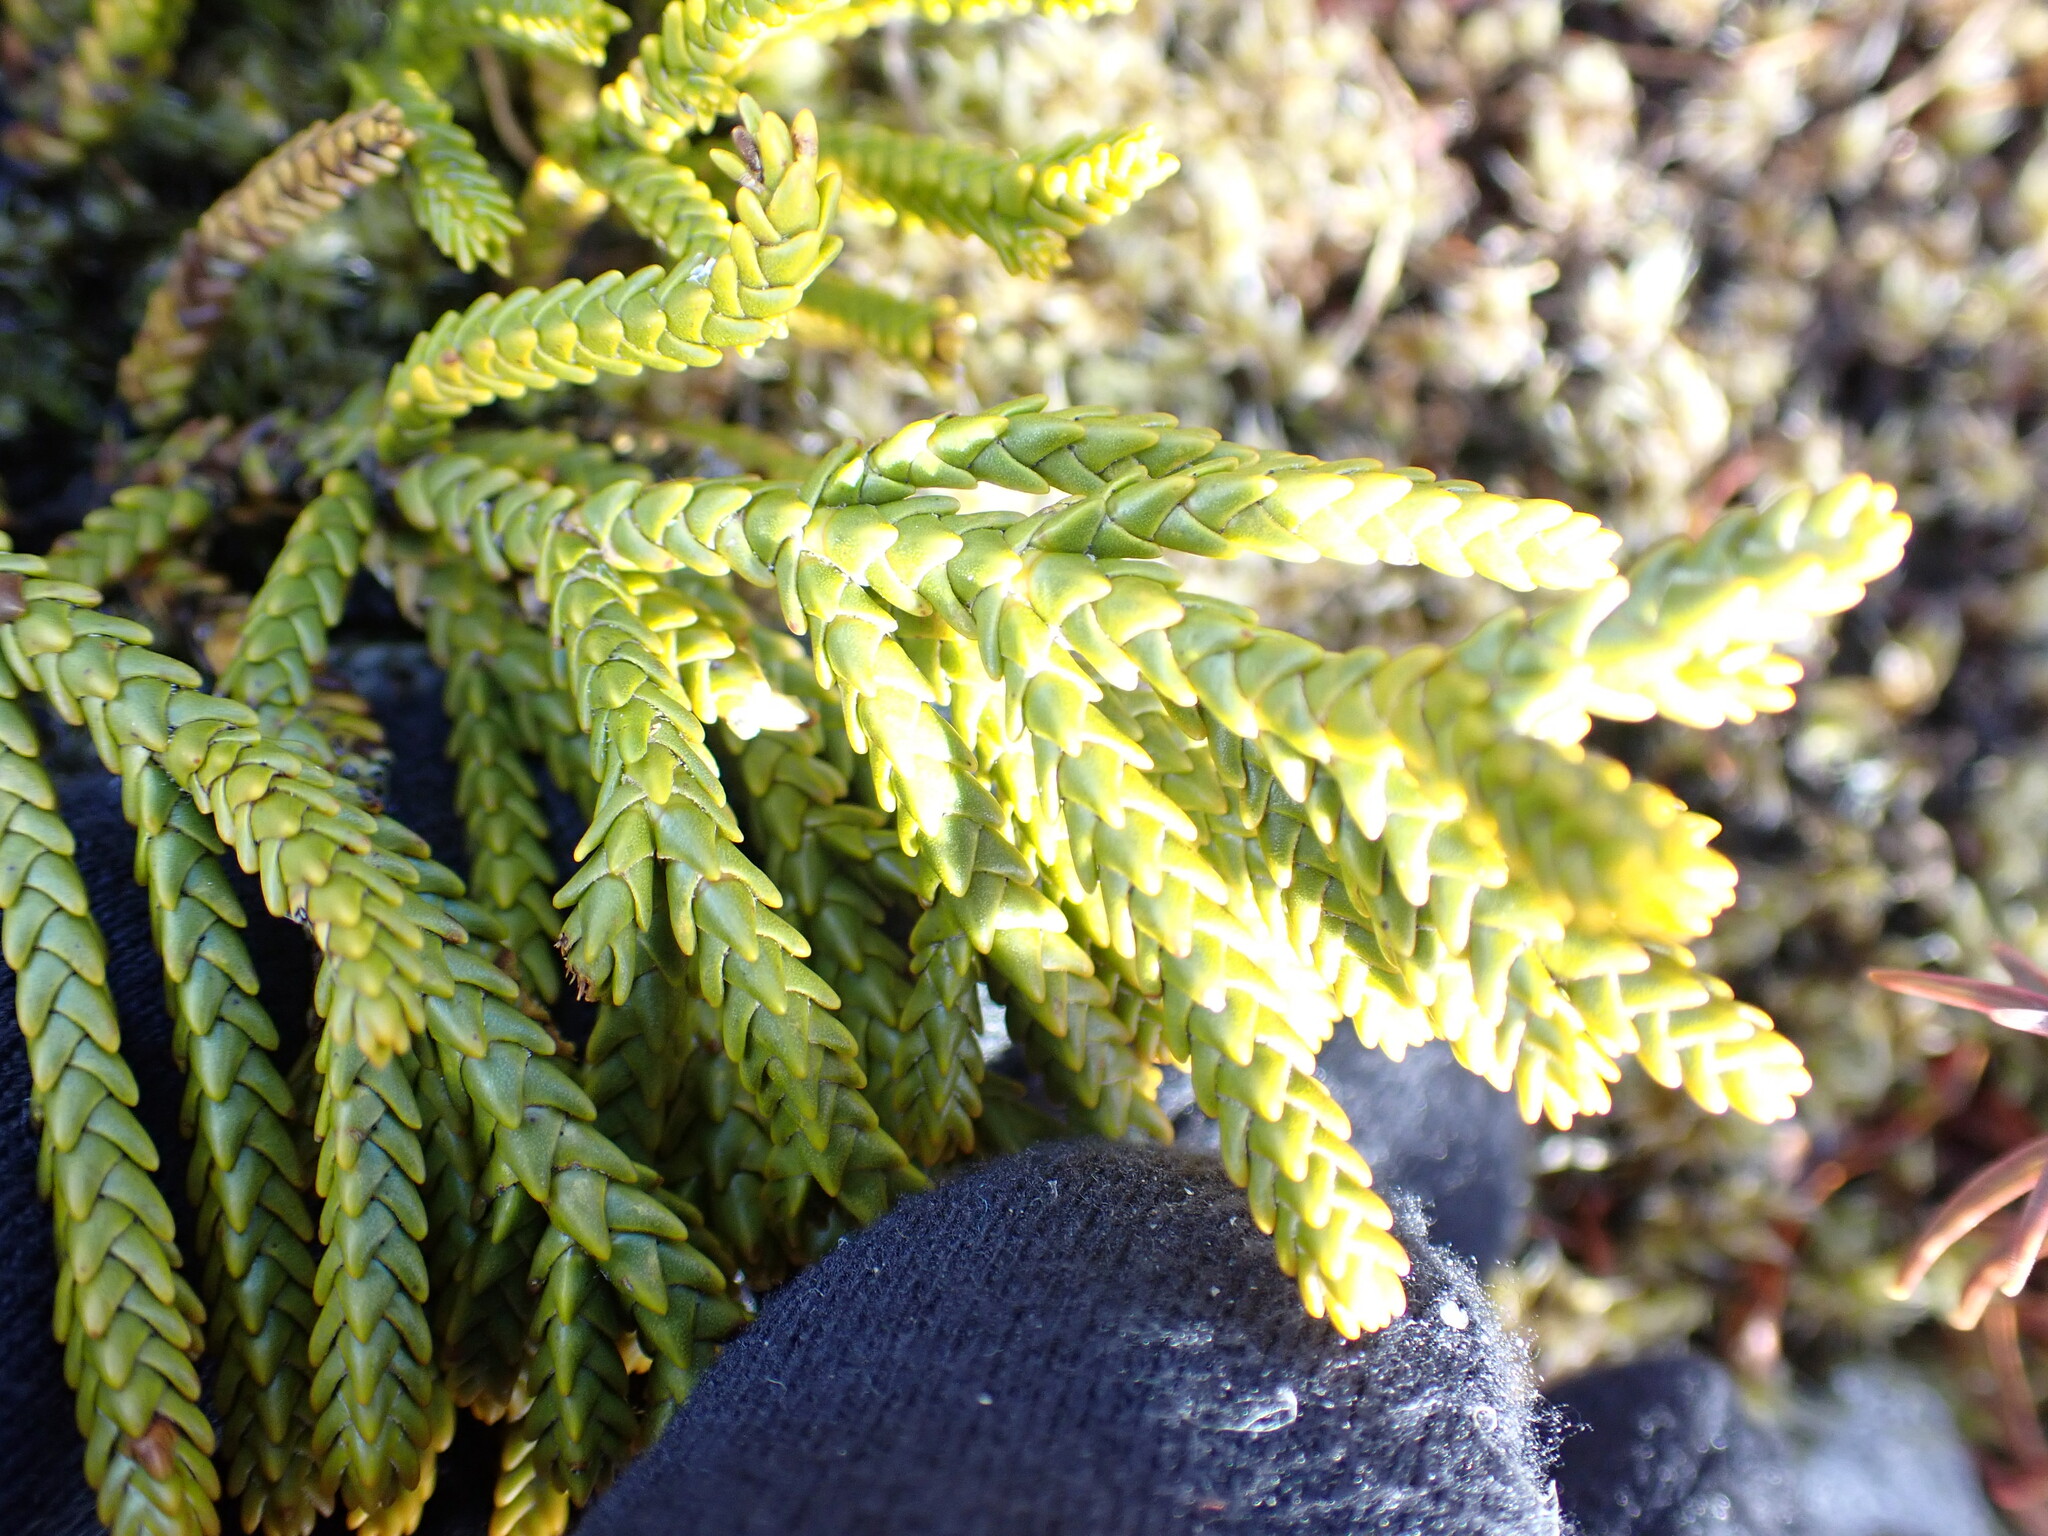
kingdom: Plantae
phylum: Tracheophyta
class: Magnoliopsida
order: Lamiales
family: Plantaginaceae
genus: Veronica
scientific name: Veronica tetragona
